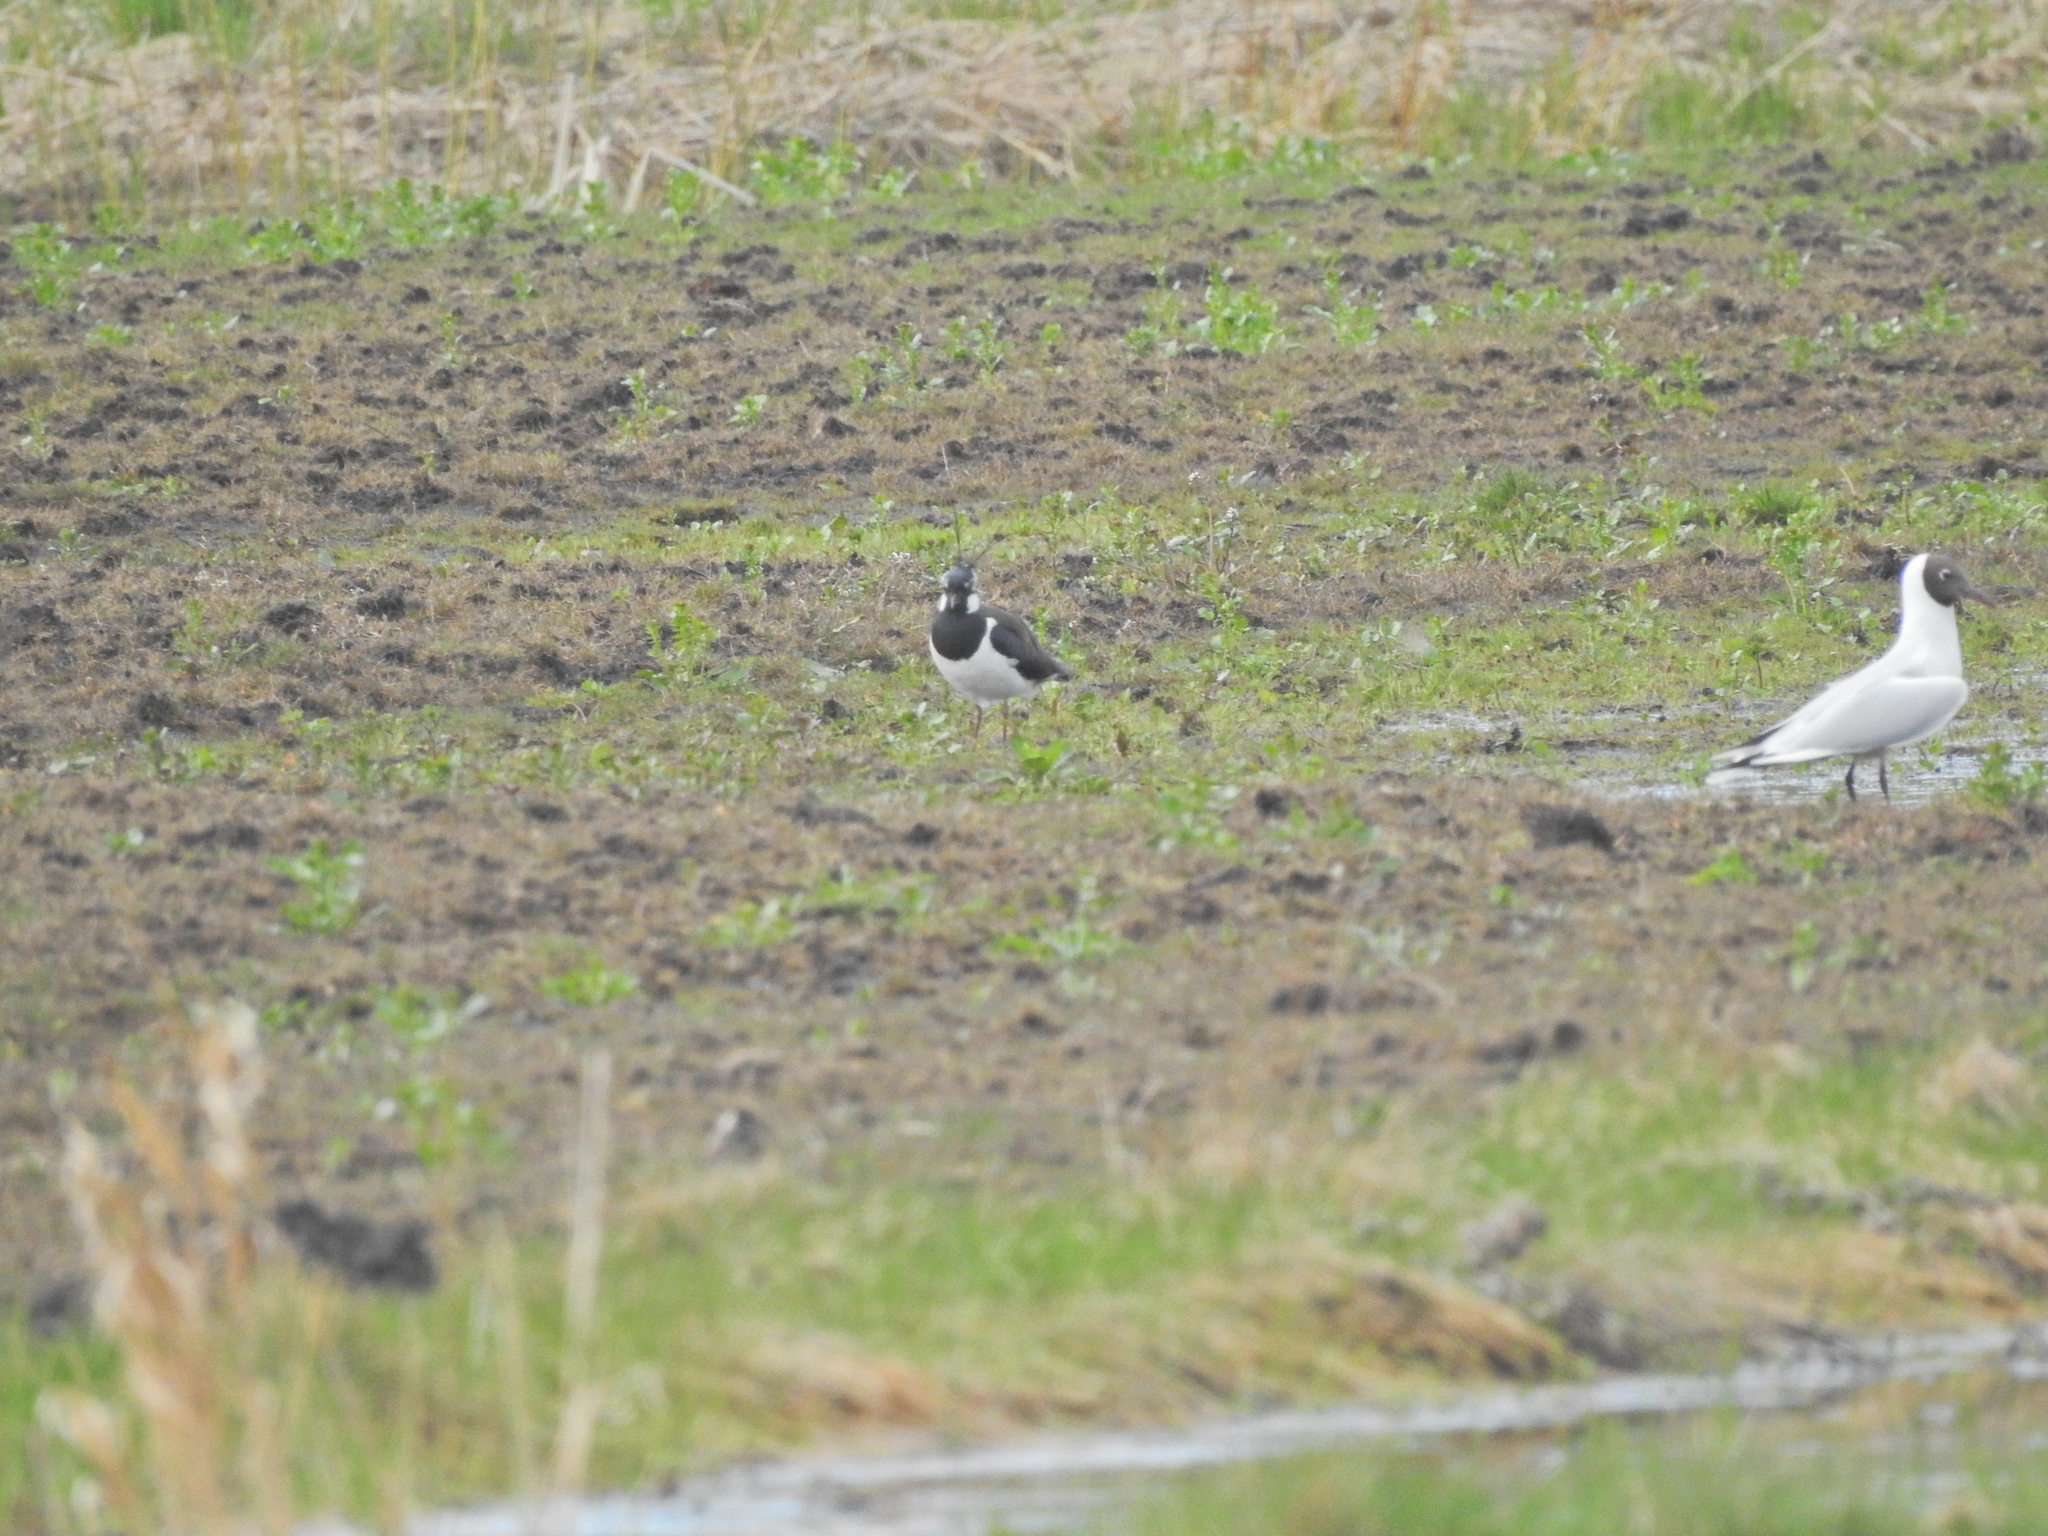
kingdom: Animalia
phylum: Chordata
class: Aves
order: Charadriiformes
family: Charadriidae
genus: Vanellus
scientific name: Vanellus vanellus
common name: Northern lapwing
